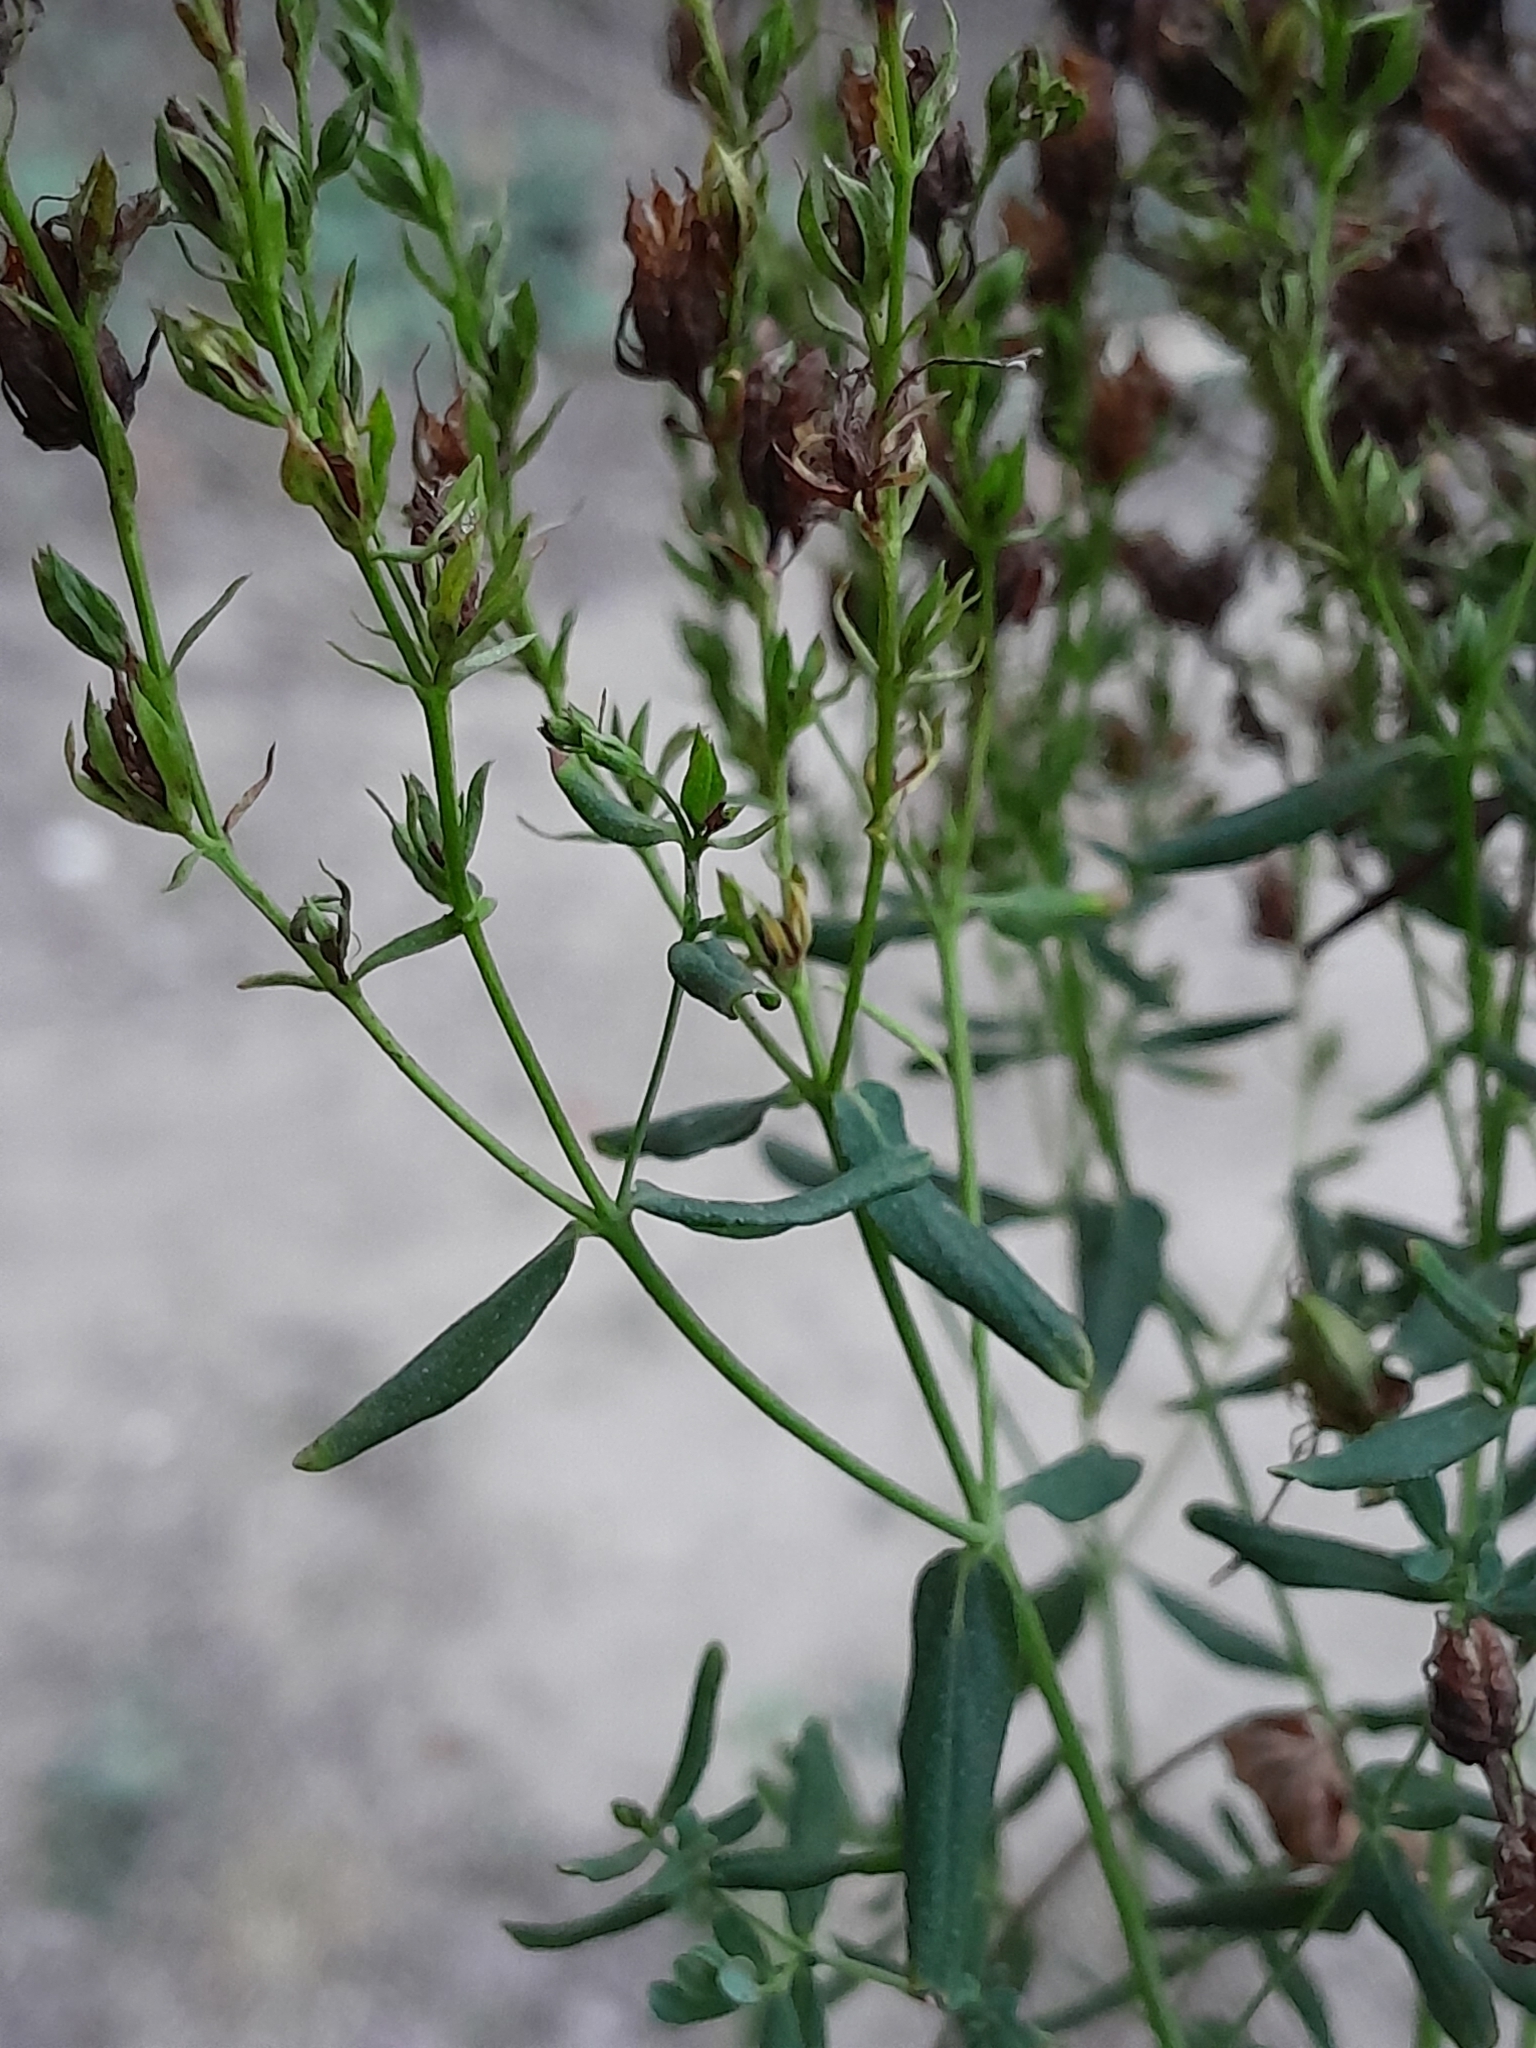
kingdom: Plantae
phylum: Tracheophyta
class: Magnoliopsida
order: Malpighiales
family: Hypericaceae
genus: Hypericum
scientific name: Hypericum perforatum
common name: Common st. johnswort
